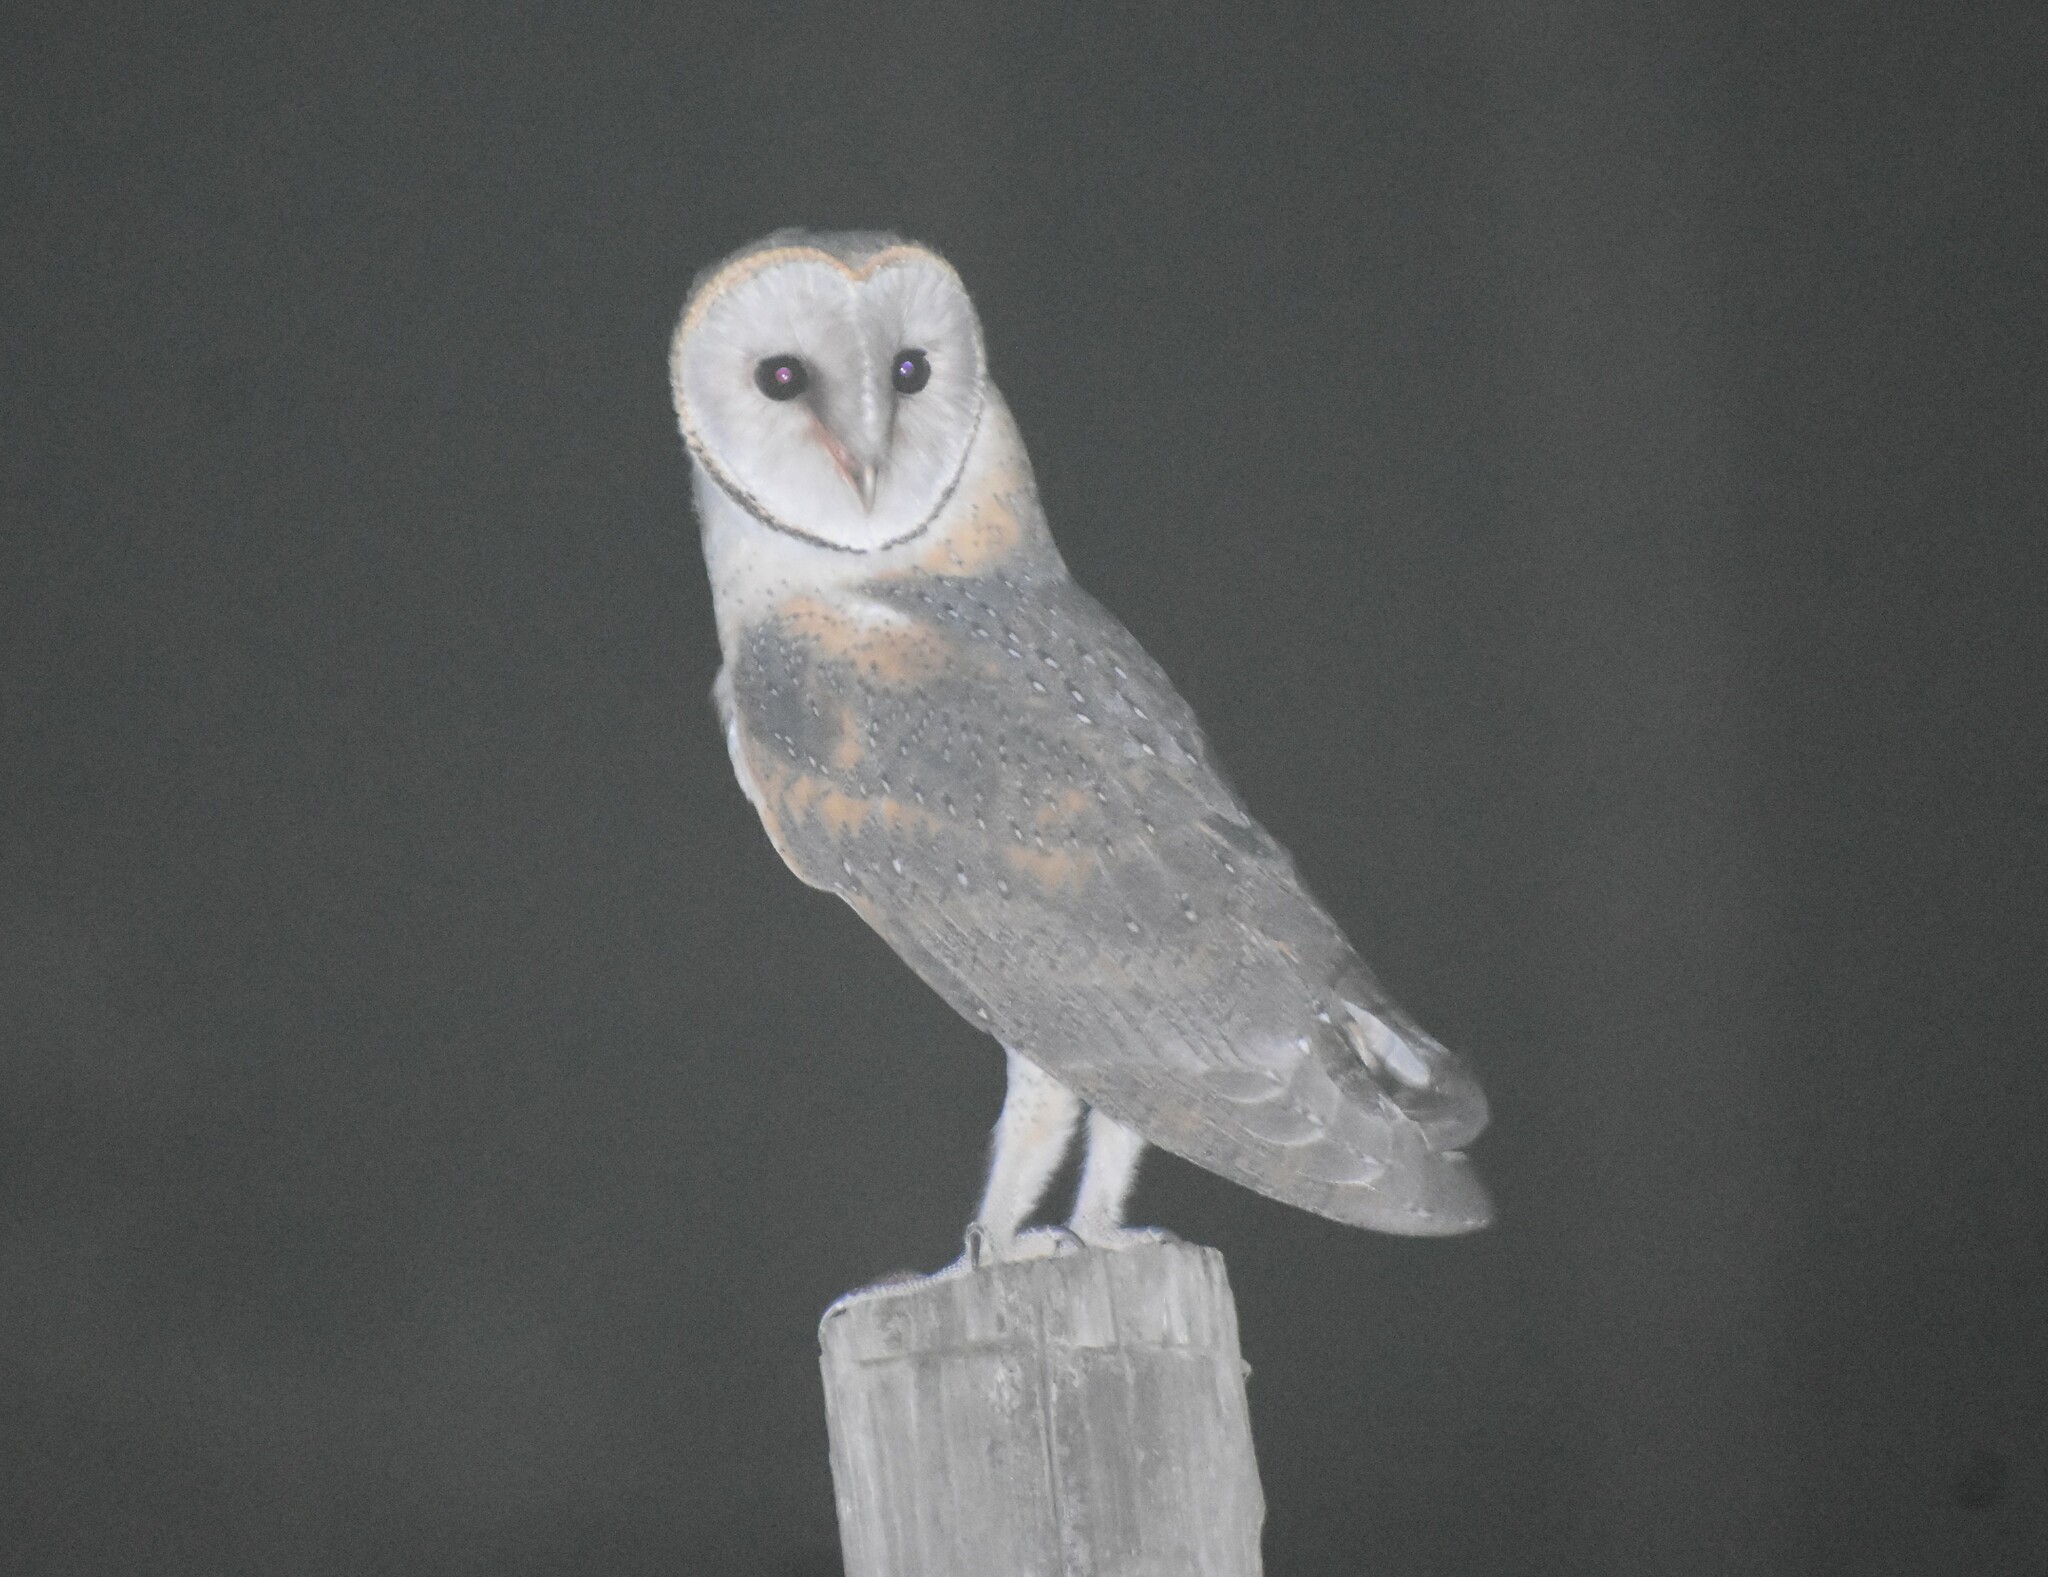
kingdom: Animalia
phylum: Chordata
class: Aves
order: Strigiformes
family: Tytonidae
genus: Tyto
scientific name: Tyto alba
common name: Barn owl
